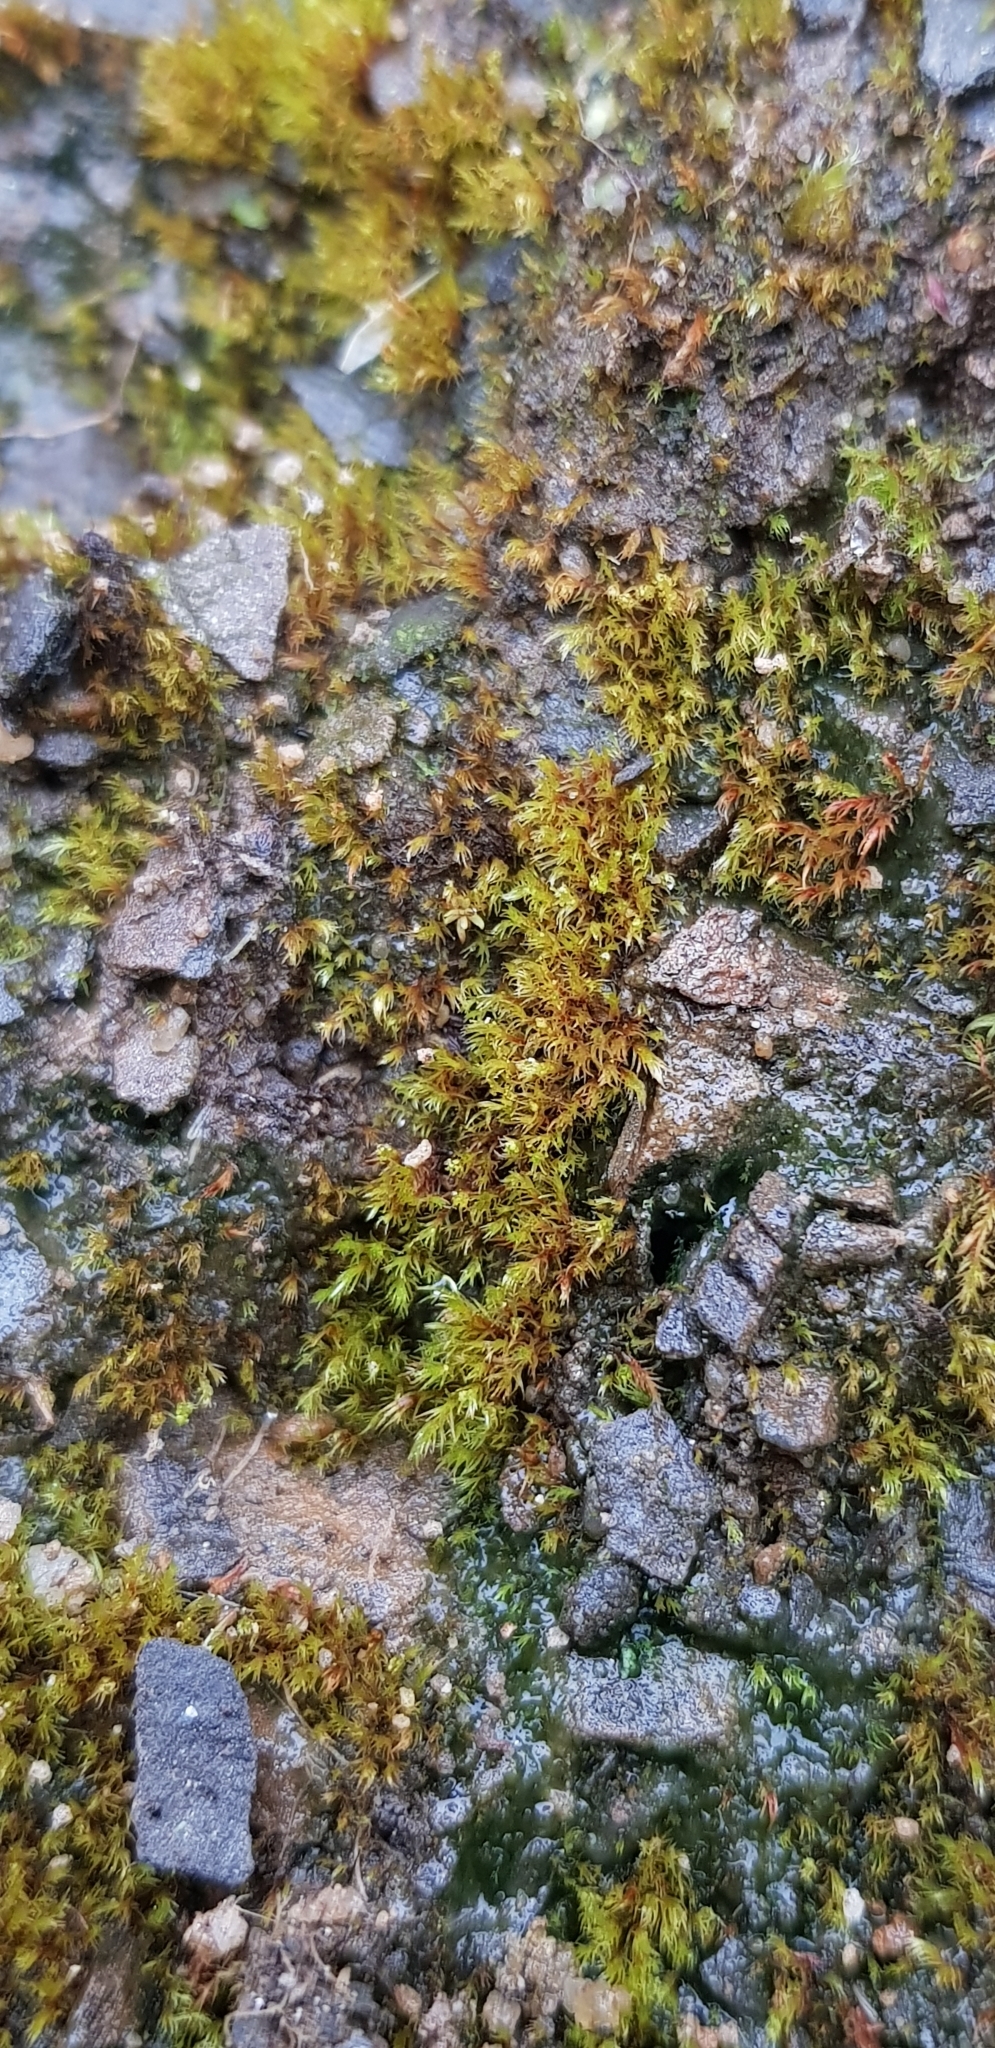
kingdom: Plantae
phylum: Bryophyta
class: Bryopsida
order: Dicranales
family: Dicranellaceae
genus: Dicranella
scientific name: Dicranella rufescens
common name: Red forklet moss
